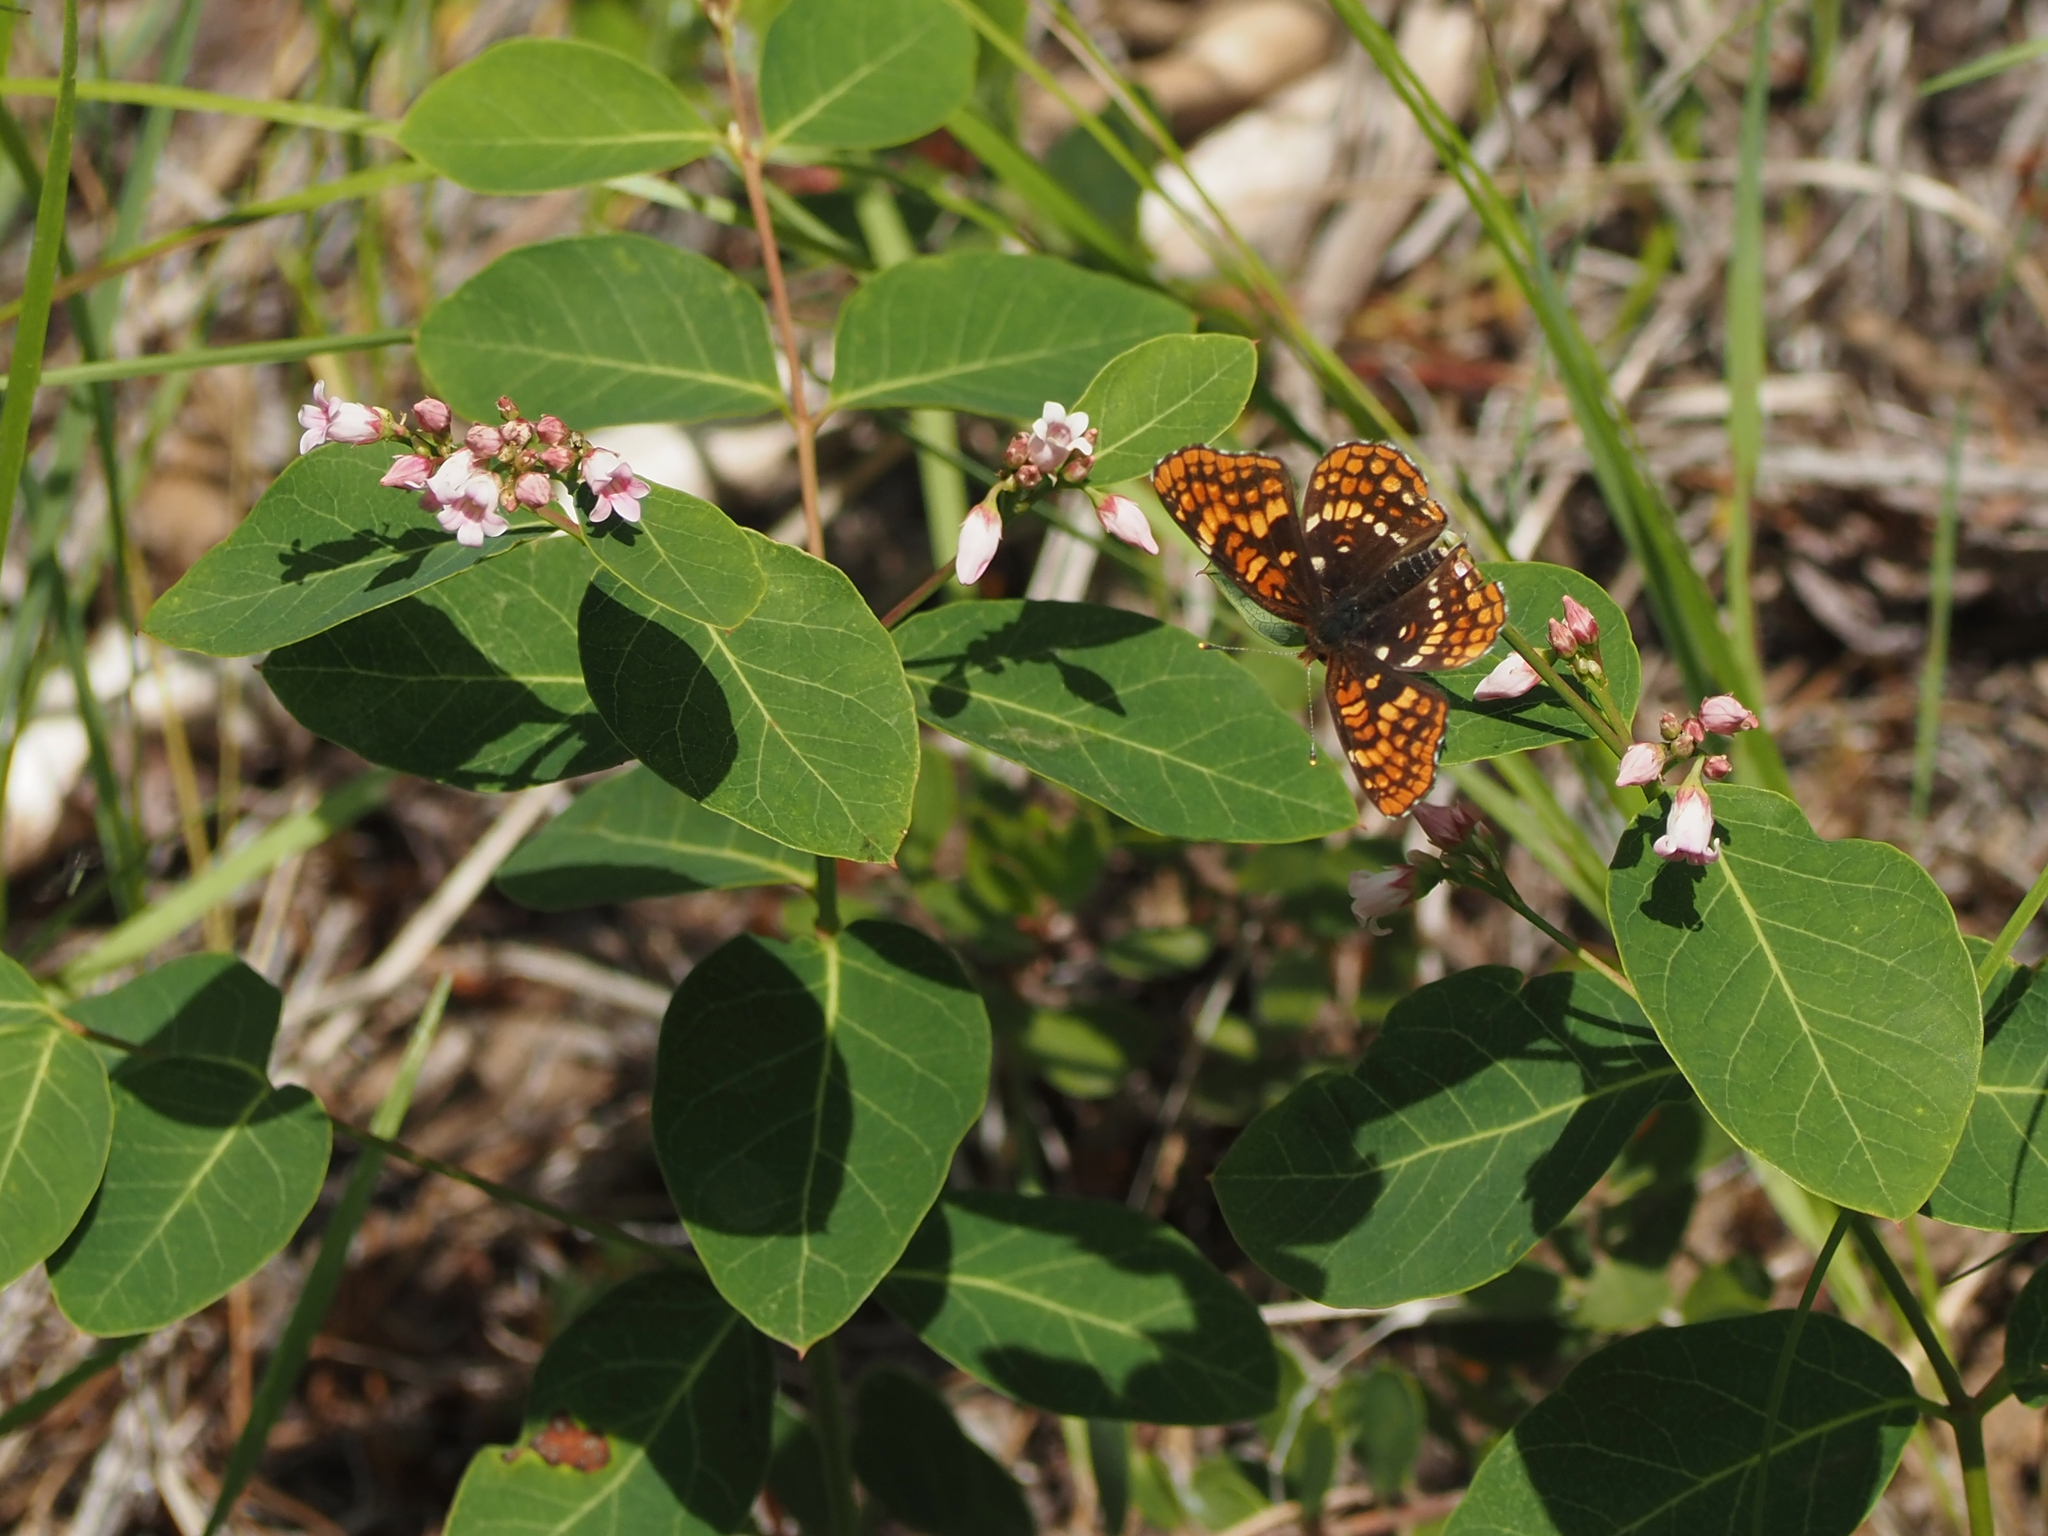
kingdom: Plantae
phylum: Tracheophyta
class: Magnoliopsida
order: Gentianales
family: Apocynaceae
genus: Apocynum
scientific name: Apocynum androsaemifolium
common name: Spreading dogbane
